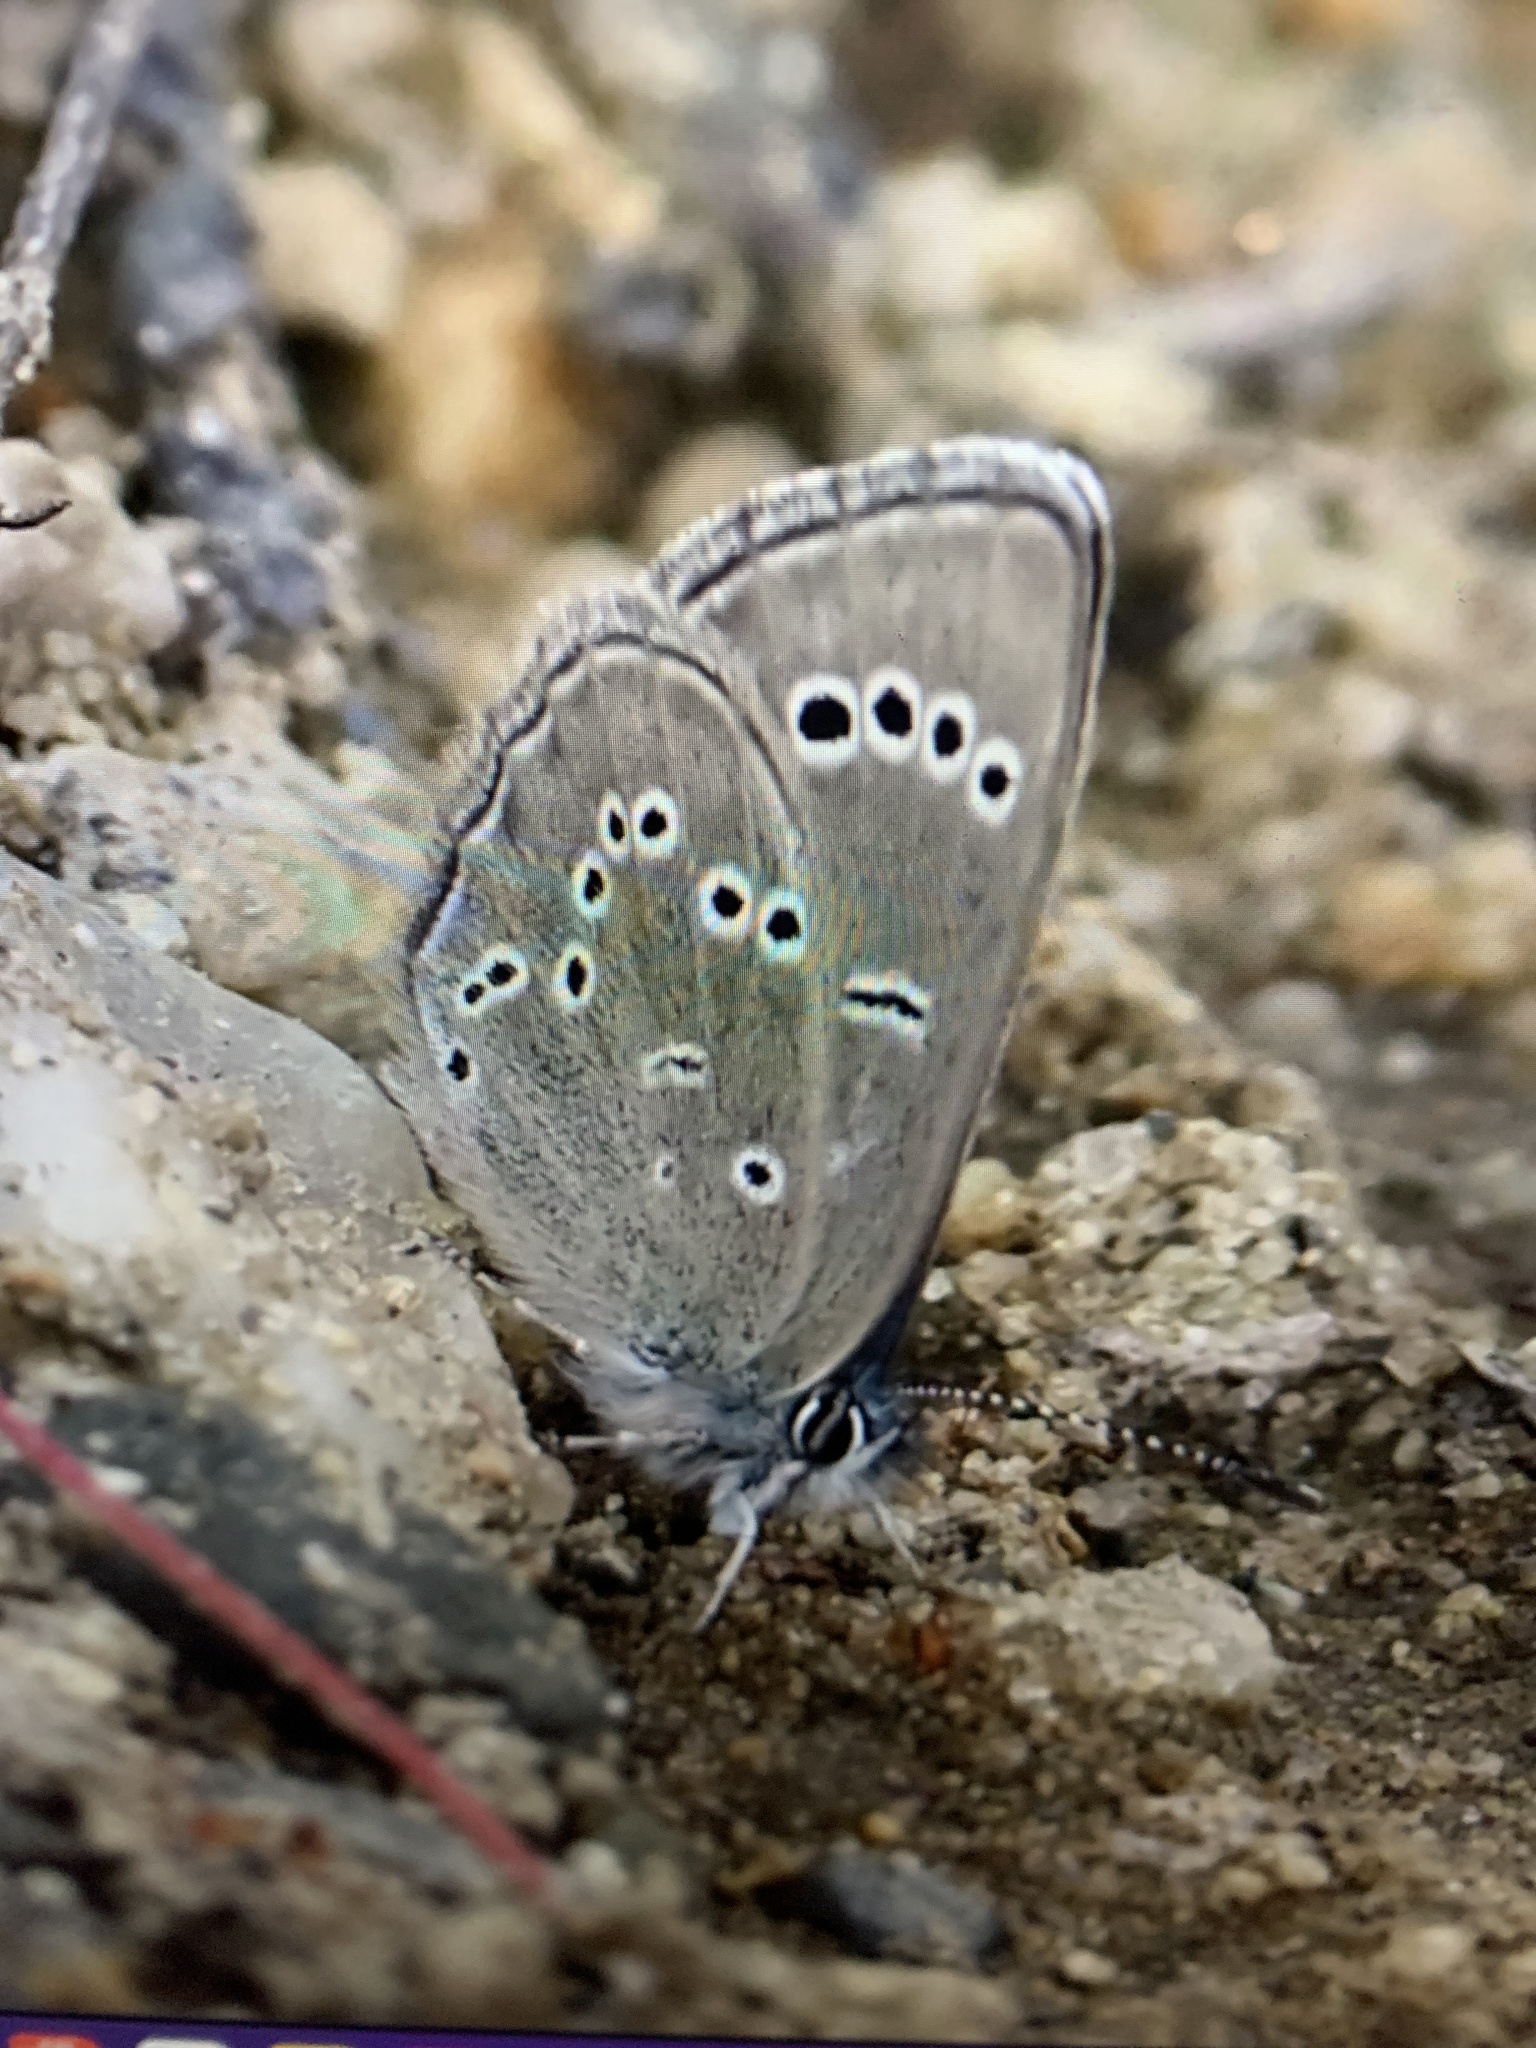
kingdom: Animalia
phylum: Arthropoda
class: Insecta
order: Lepidoptera
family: Lycaenidae
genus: Glaucopsyche
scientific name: Glaucopsyche lygdamus
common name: Silvery blue
